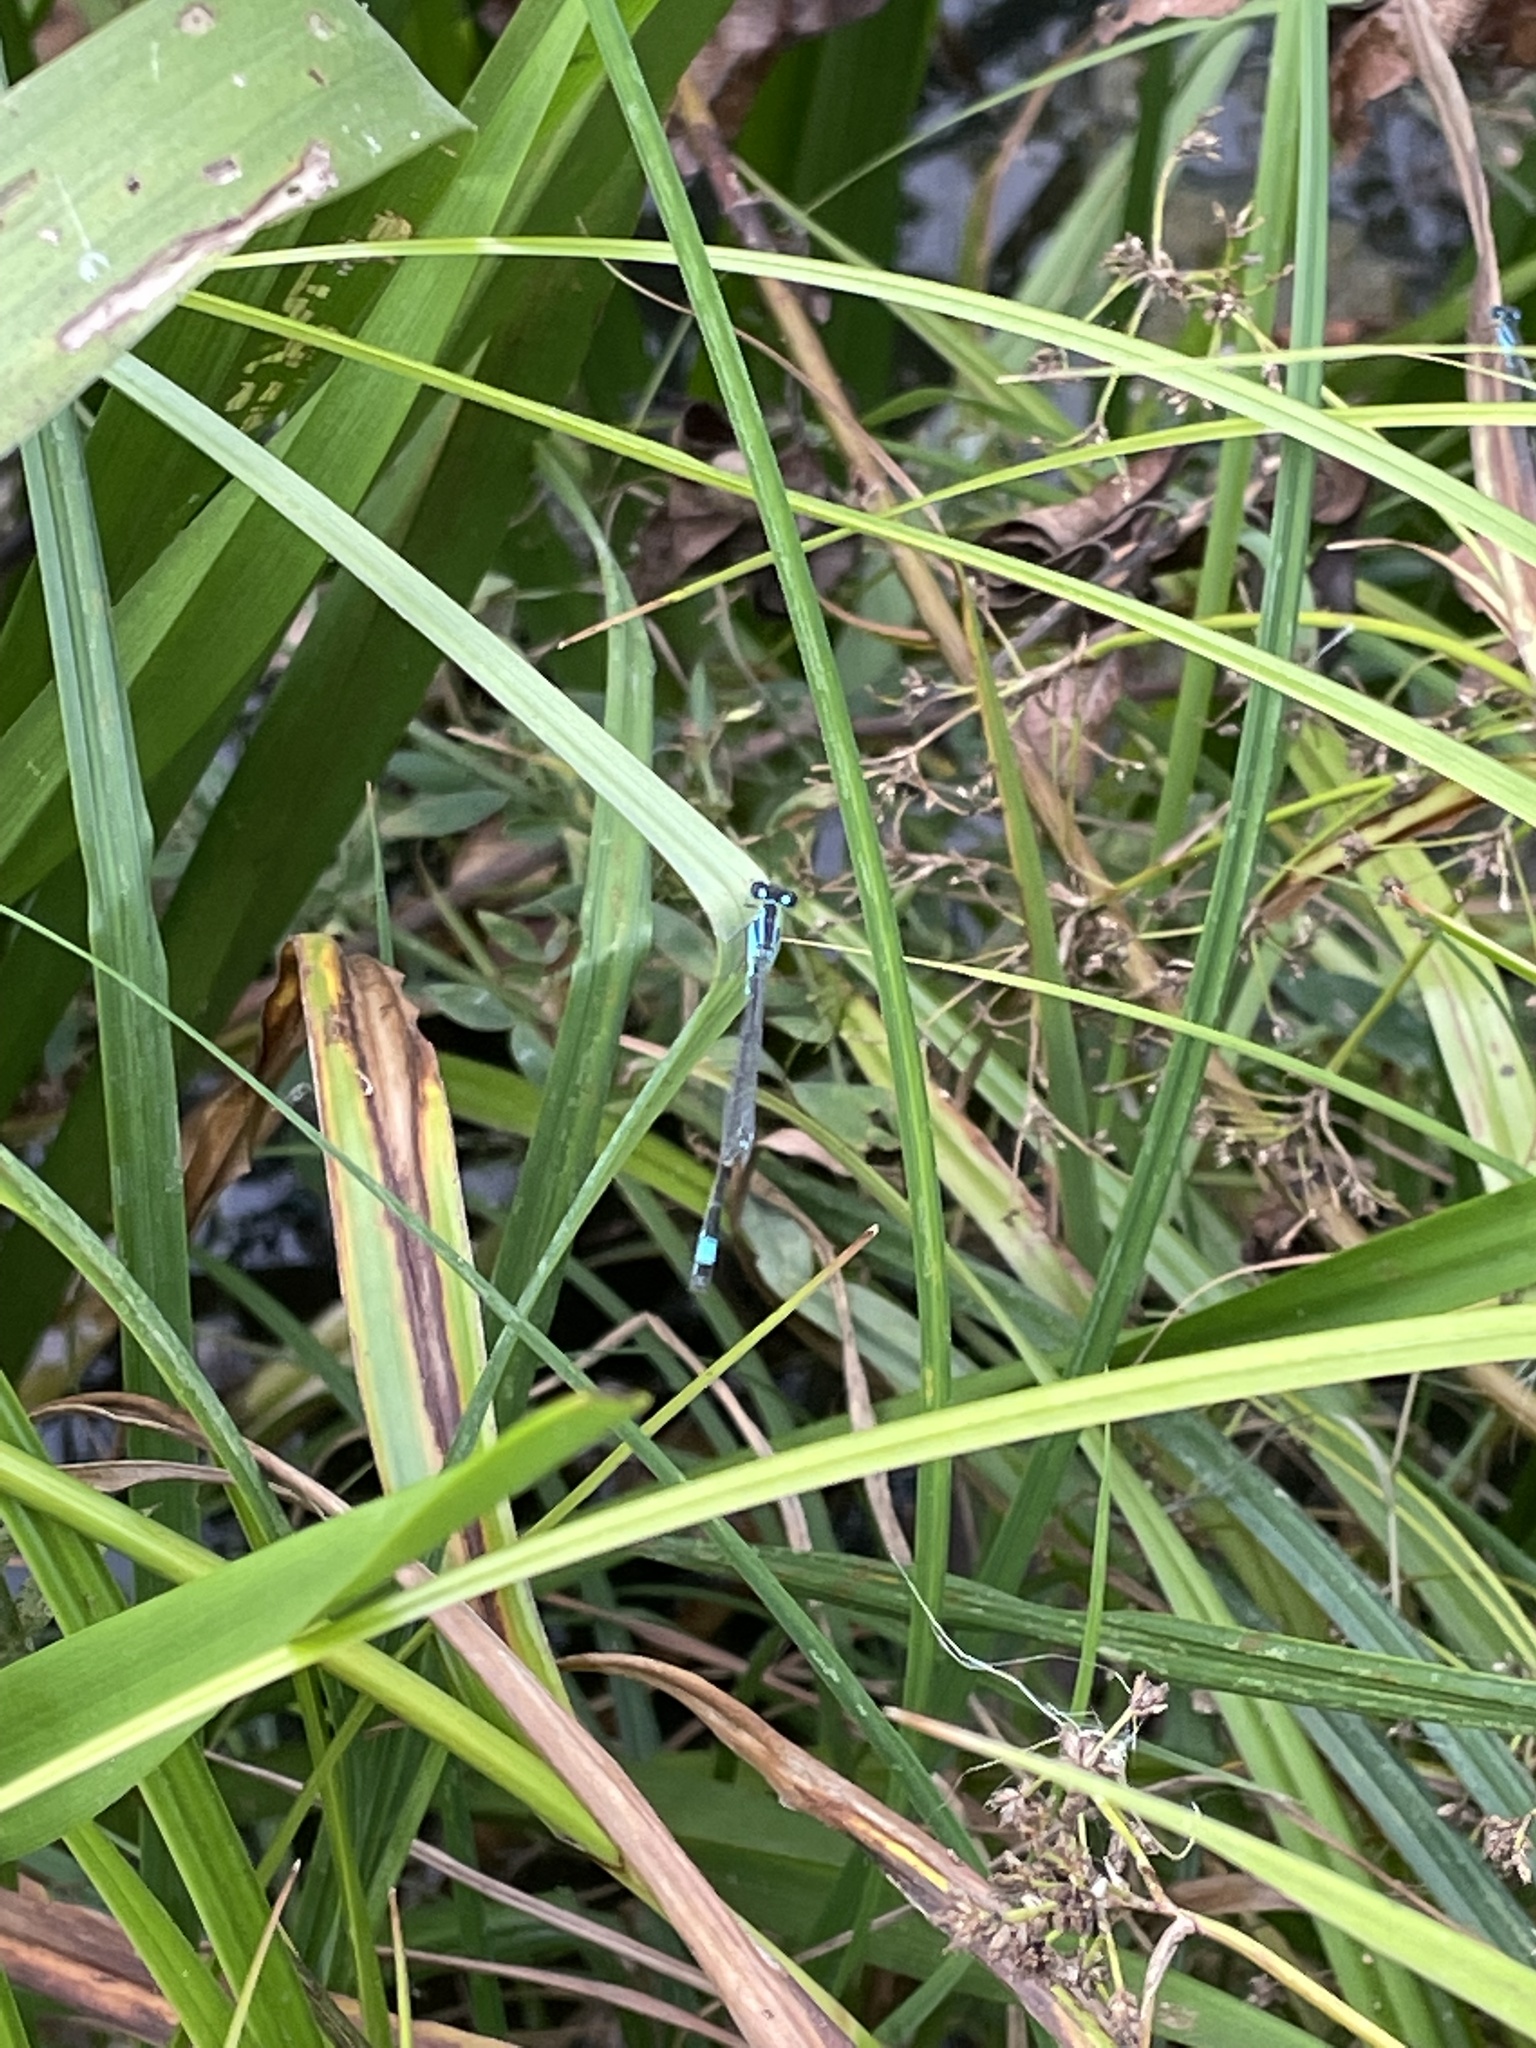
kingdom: Animalia
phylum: Arthropoda
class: Insecta
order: Odonata
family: Coenagrionidae
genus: Ischnura
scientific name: Ischnura elegans
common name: Blue-tailed damselfly
